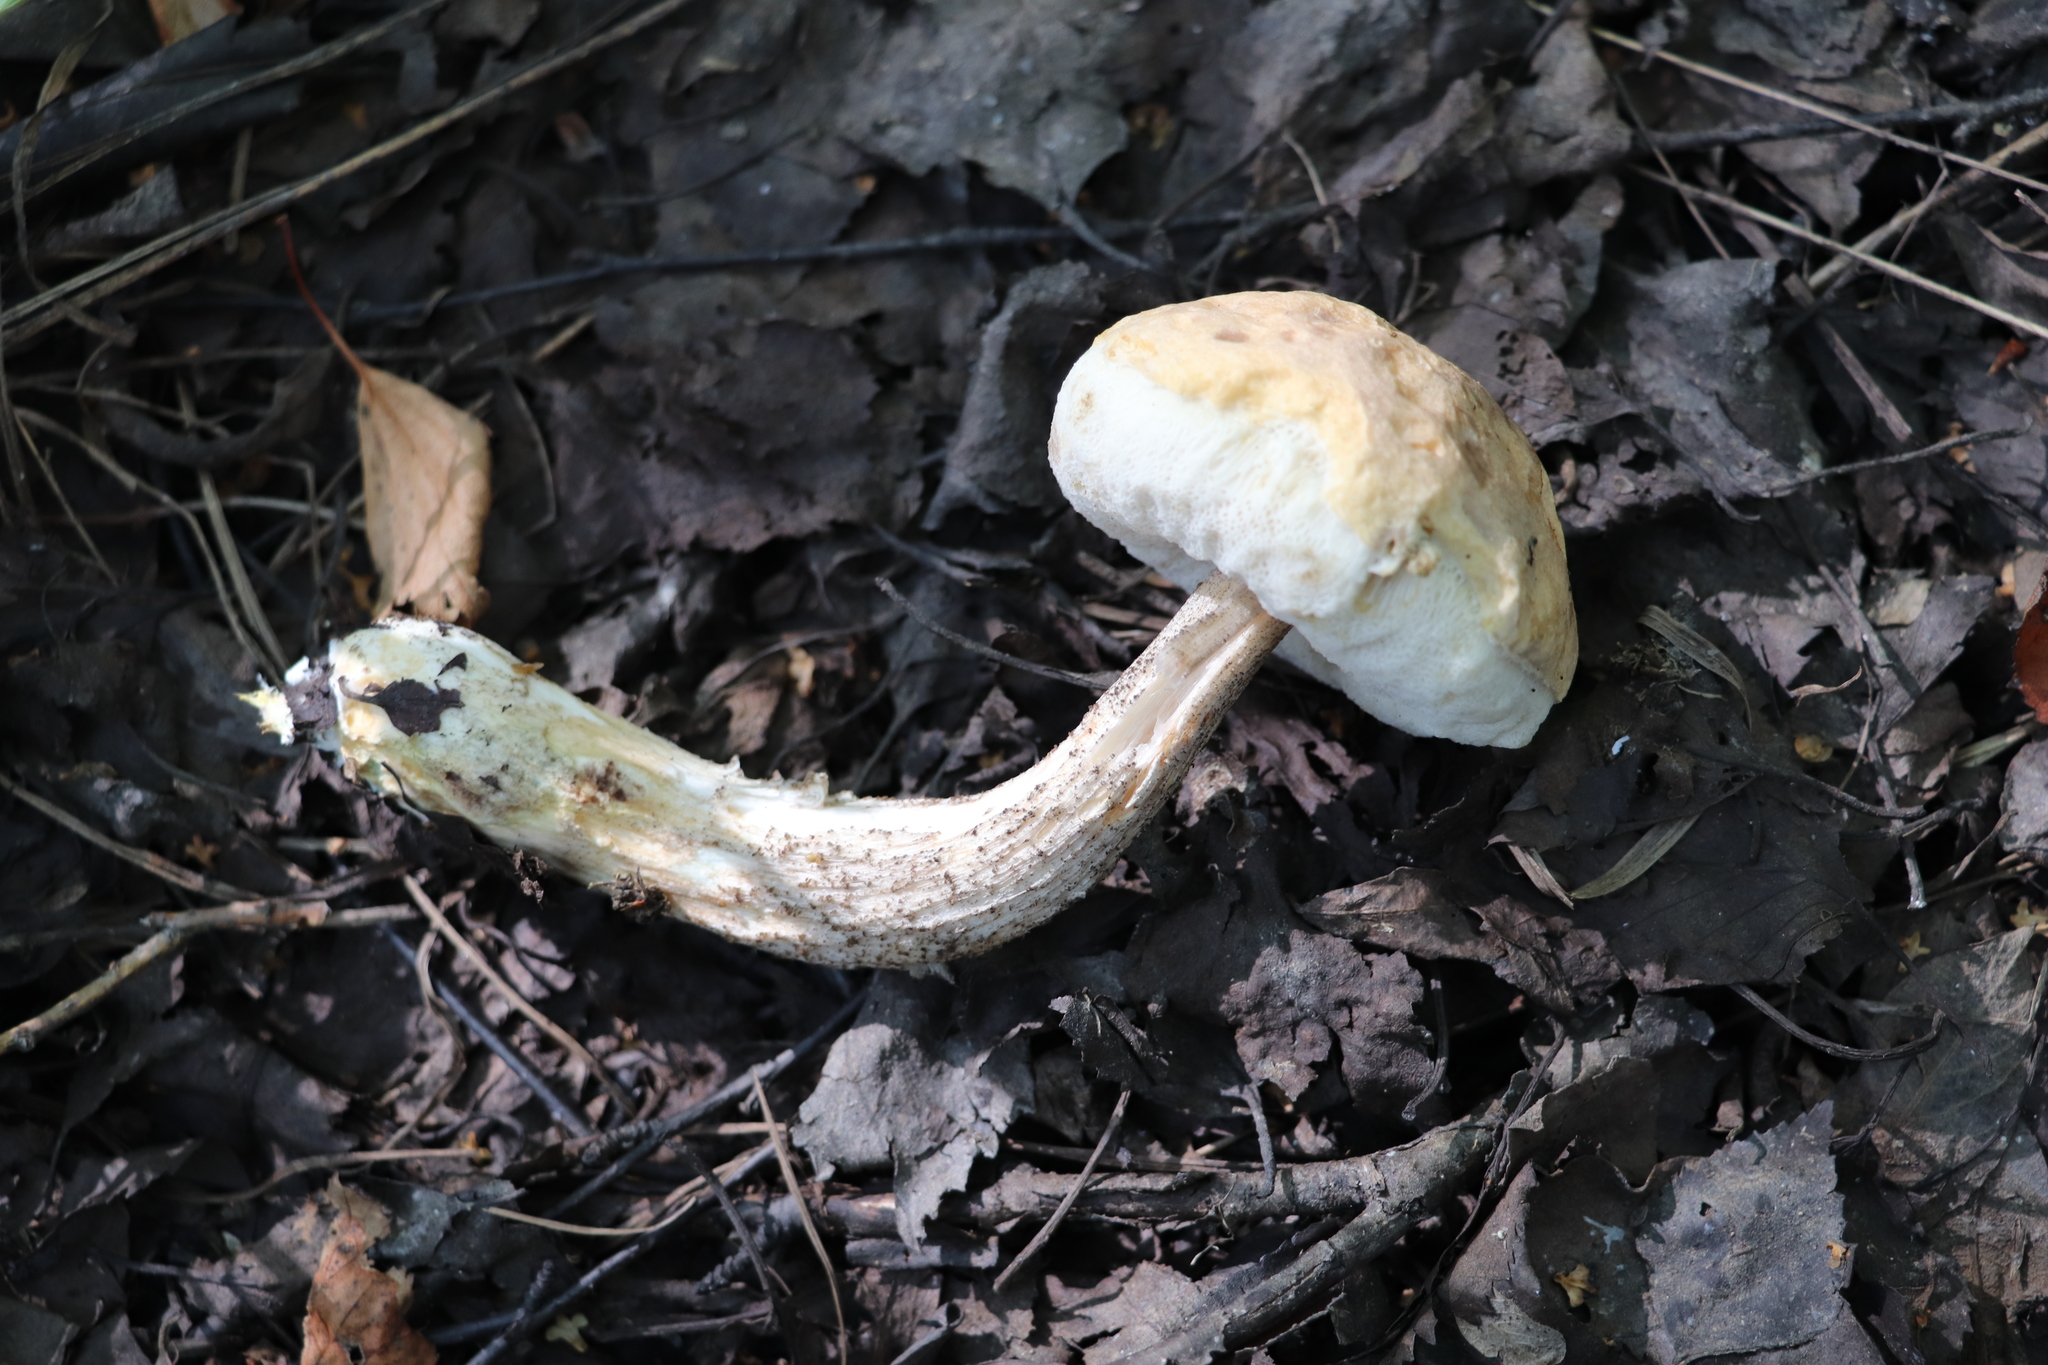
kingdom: Fungi
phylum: Basidiomycota
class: Agaricomycetes
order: Boletales
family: Boletaceae
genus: Leccinum
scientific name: Leccinum scabrum
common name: Blushing bolete
